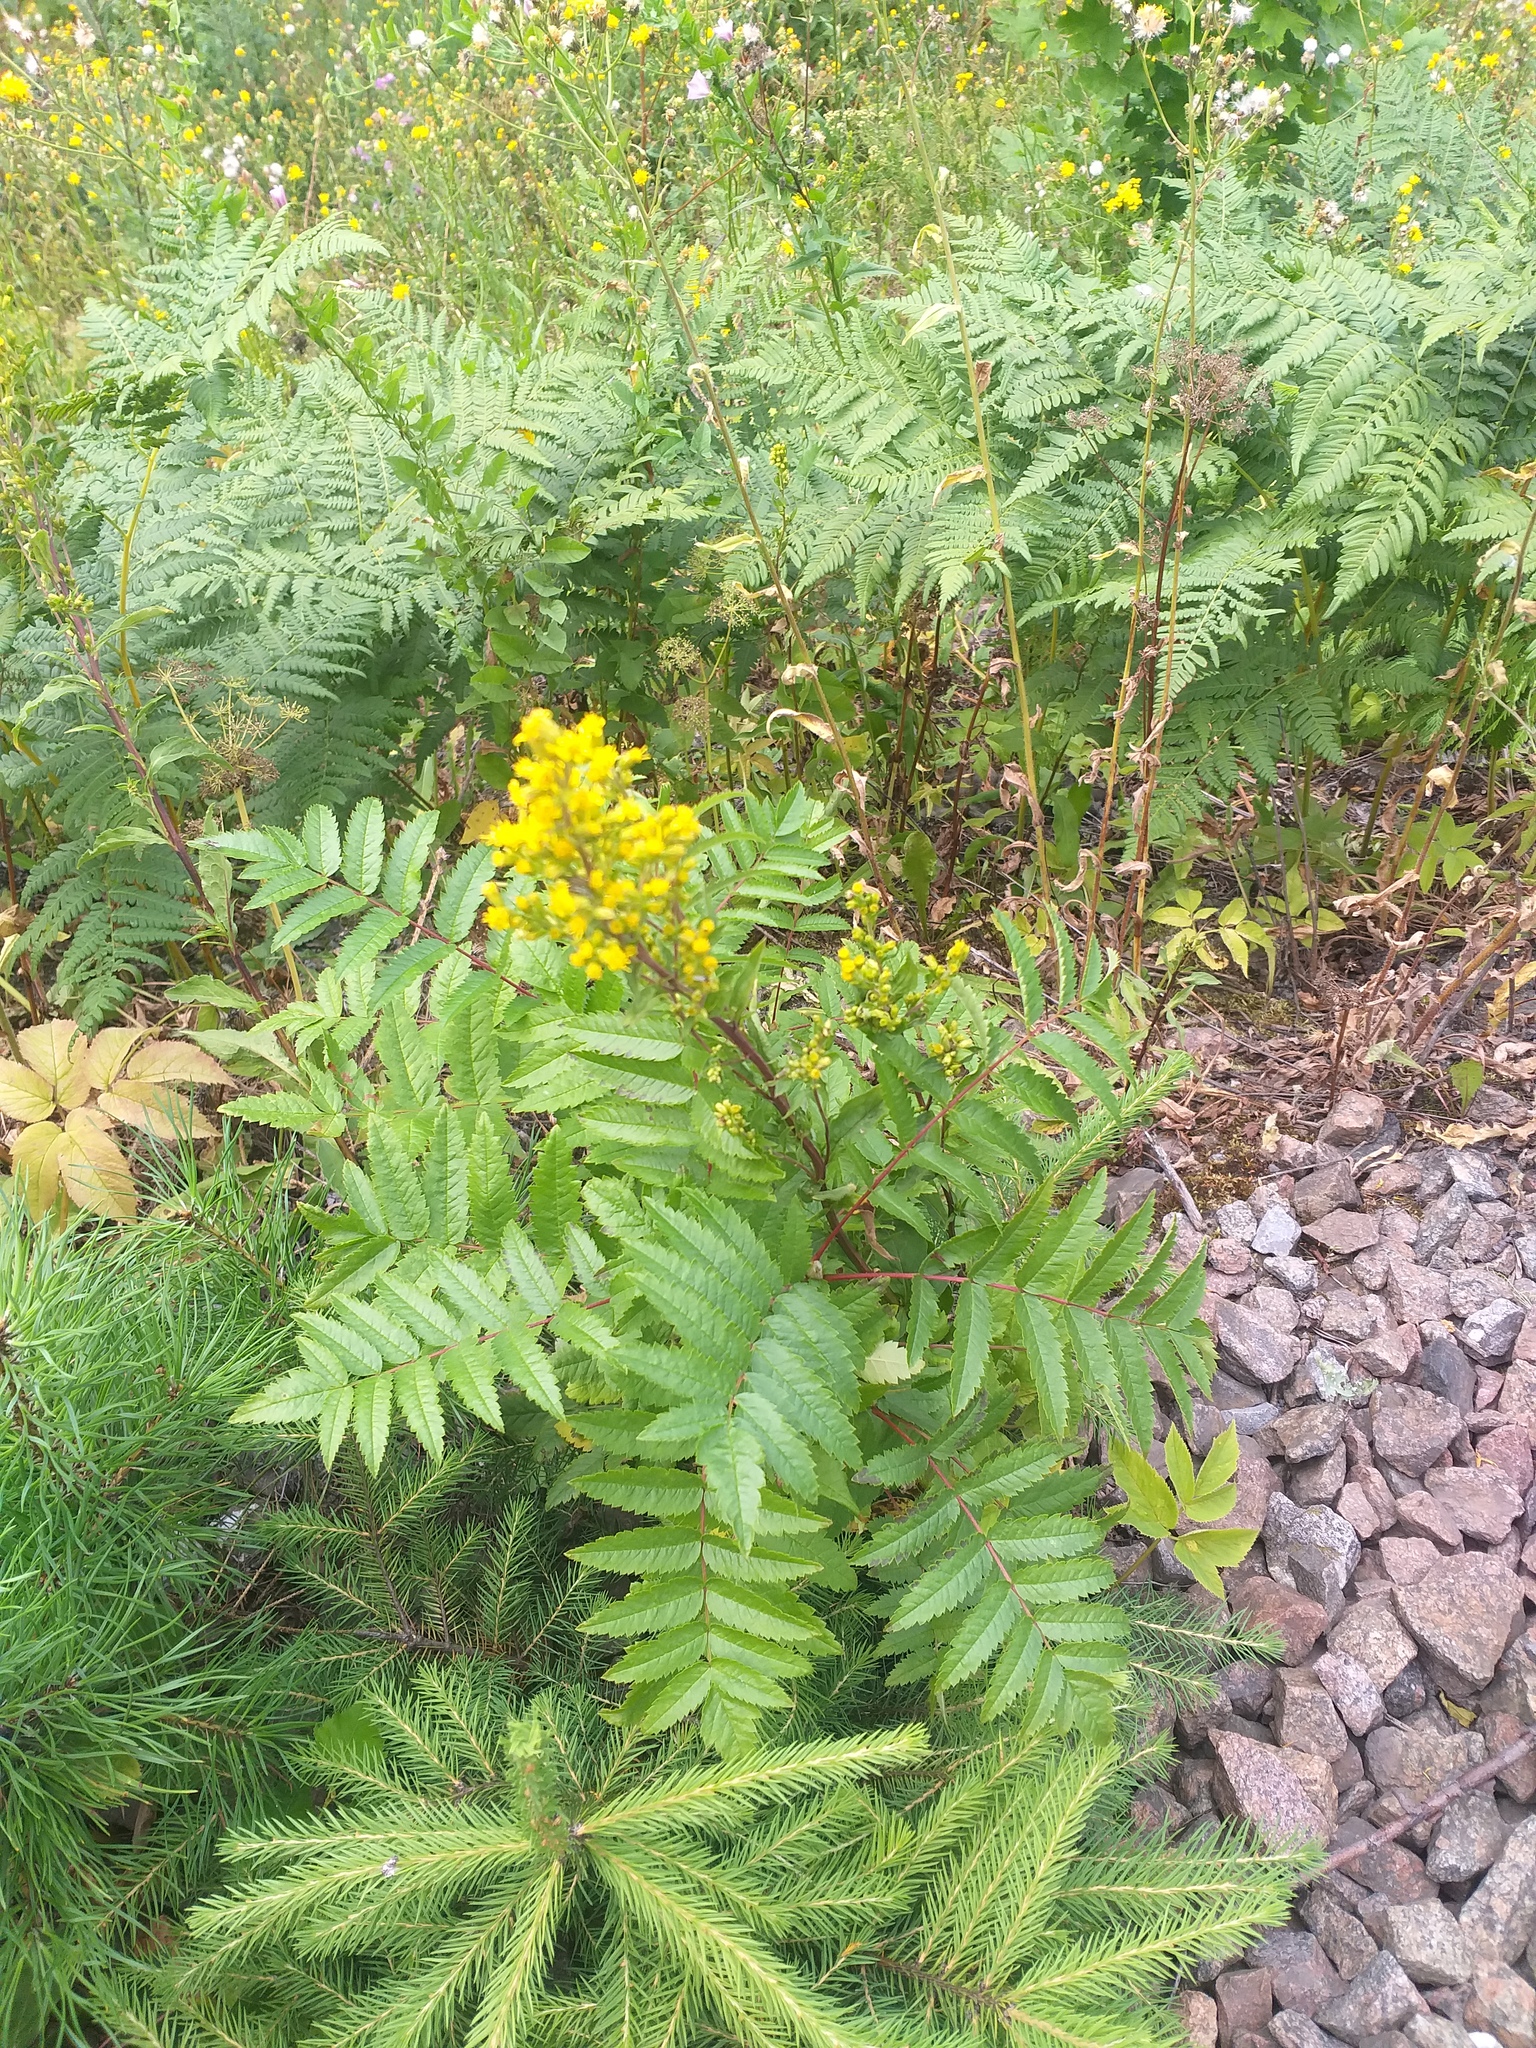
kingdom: Plantae
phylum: Tracheophyta
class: Magnoliopsida
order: Rosales
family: Rosaceae
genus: Sorbus
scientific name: Sorbus aucuparia
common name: Rowan
